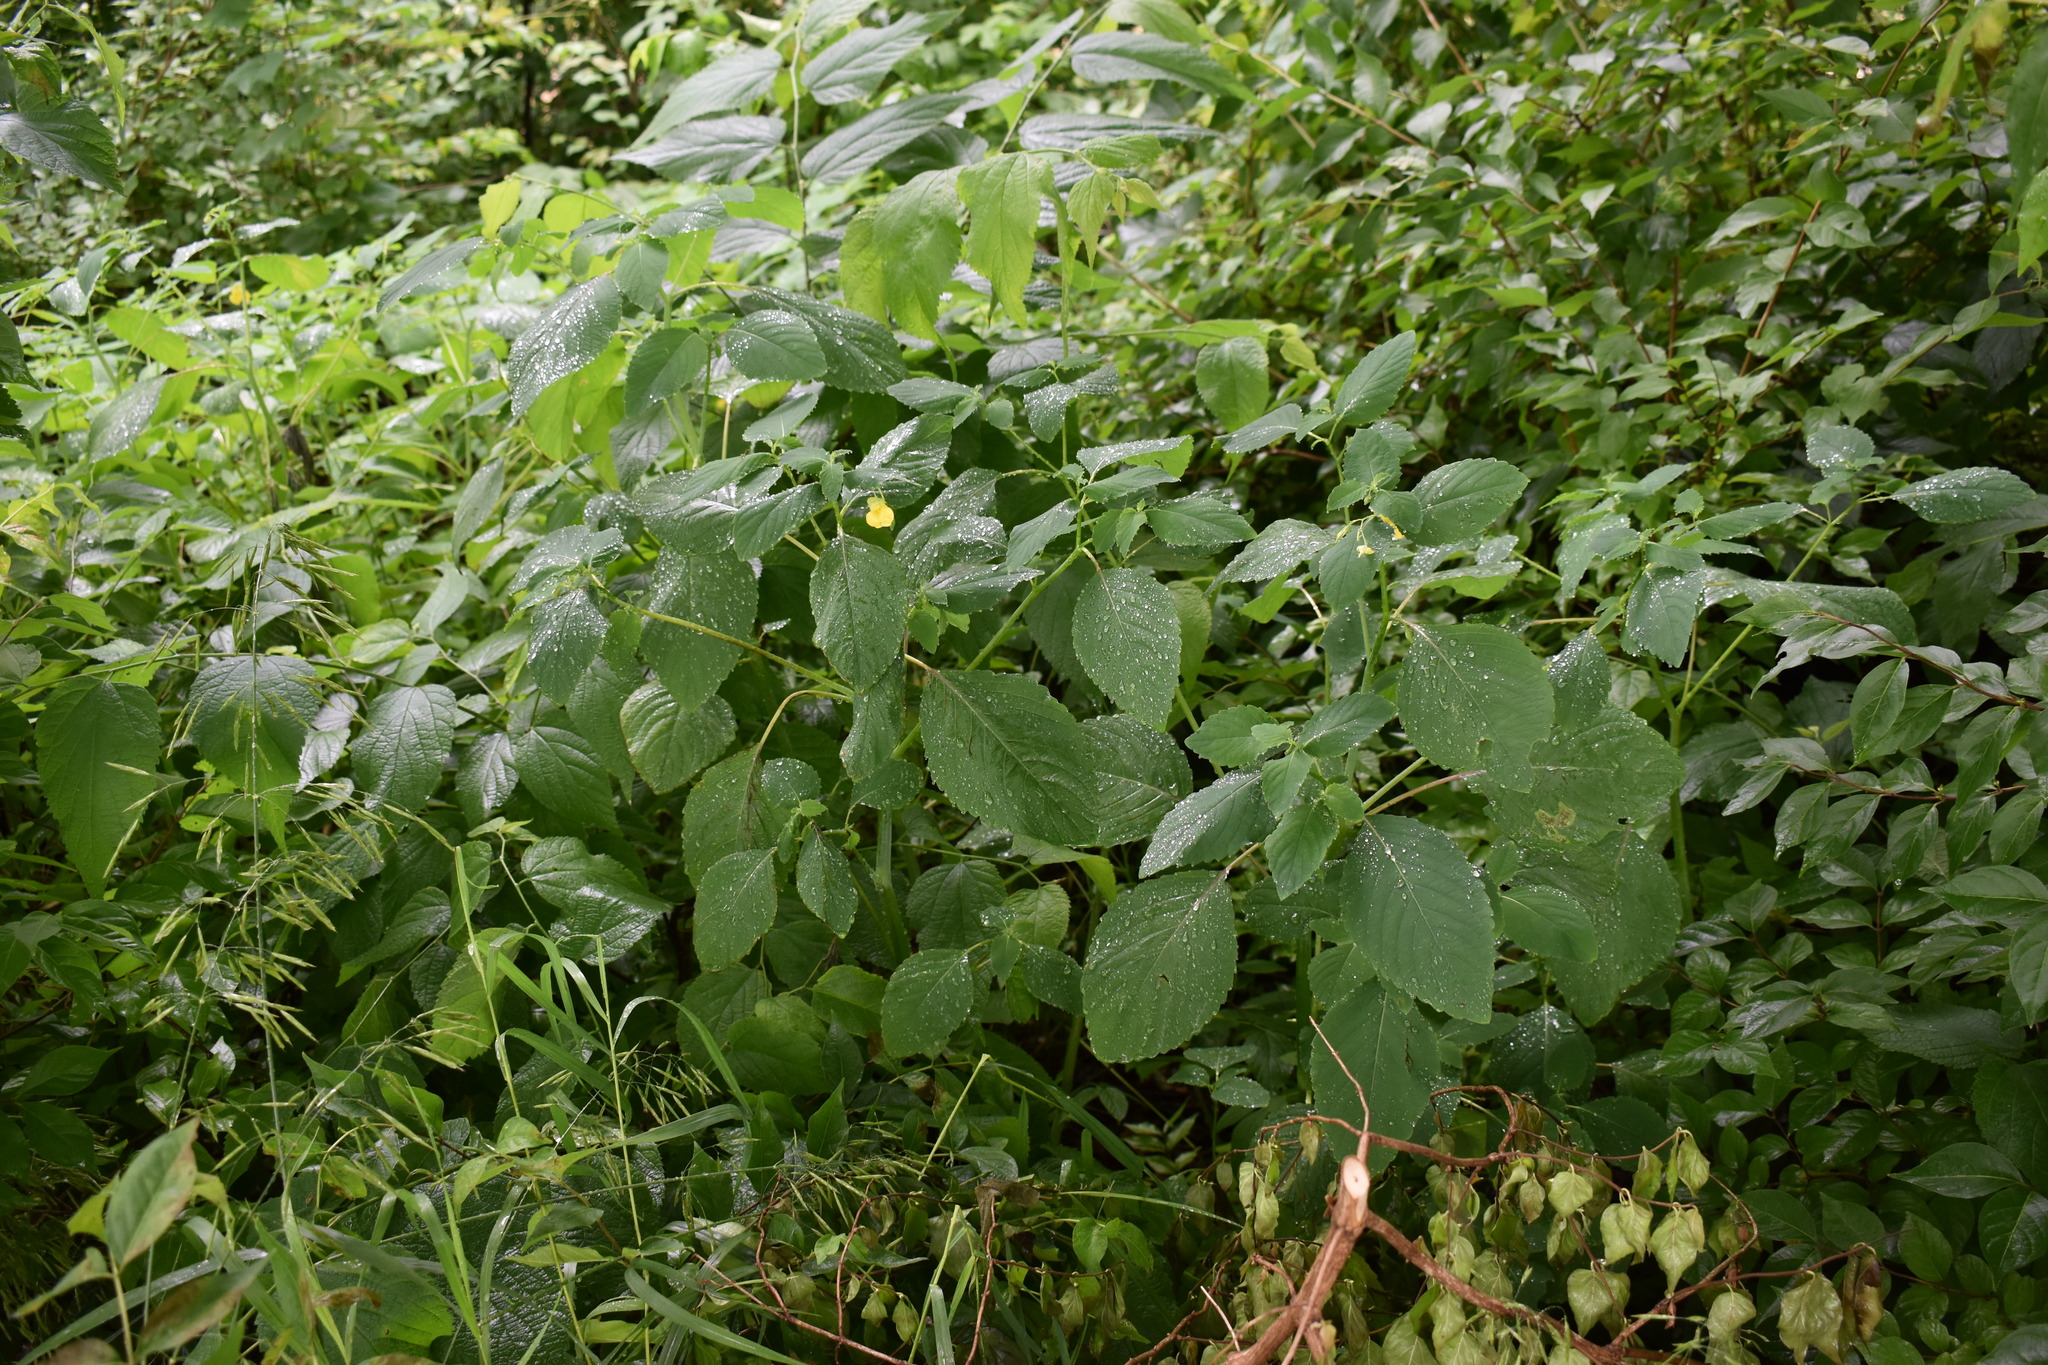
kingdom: Plantae
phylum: Tracheophyta
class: Magnoliopsida
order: Ericales
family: Balsaminaceae
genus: Impatiens
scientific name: Impatiens pallida
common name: Pale snapweed
